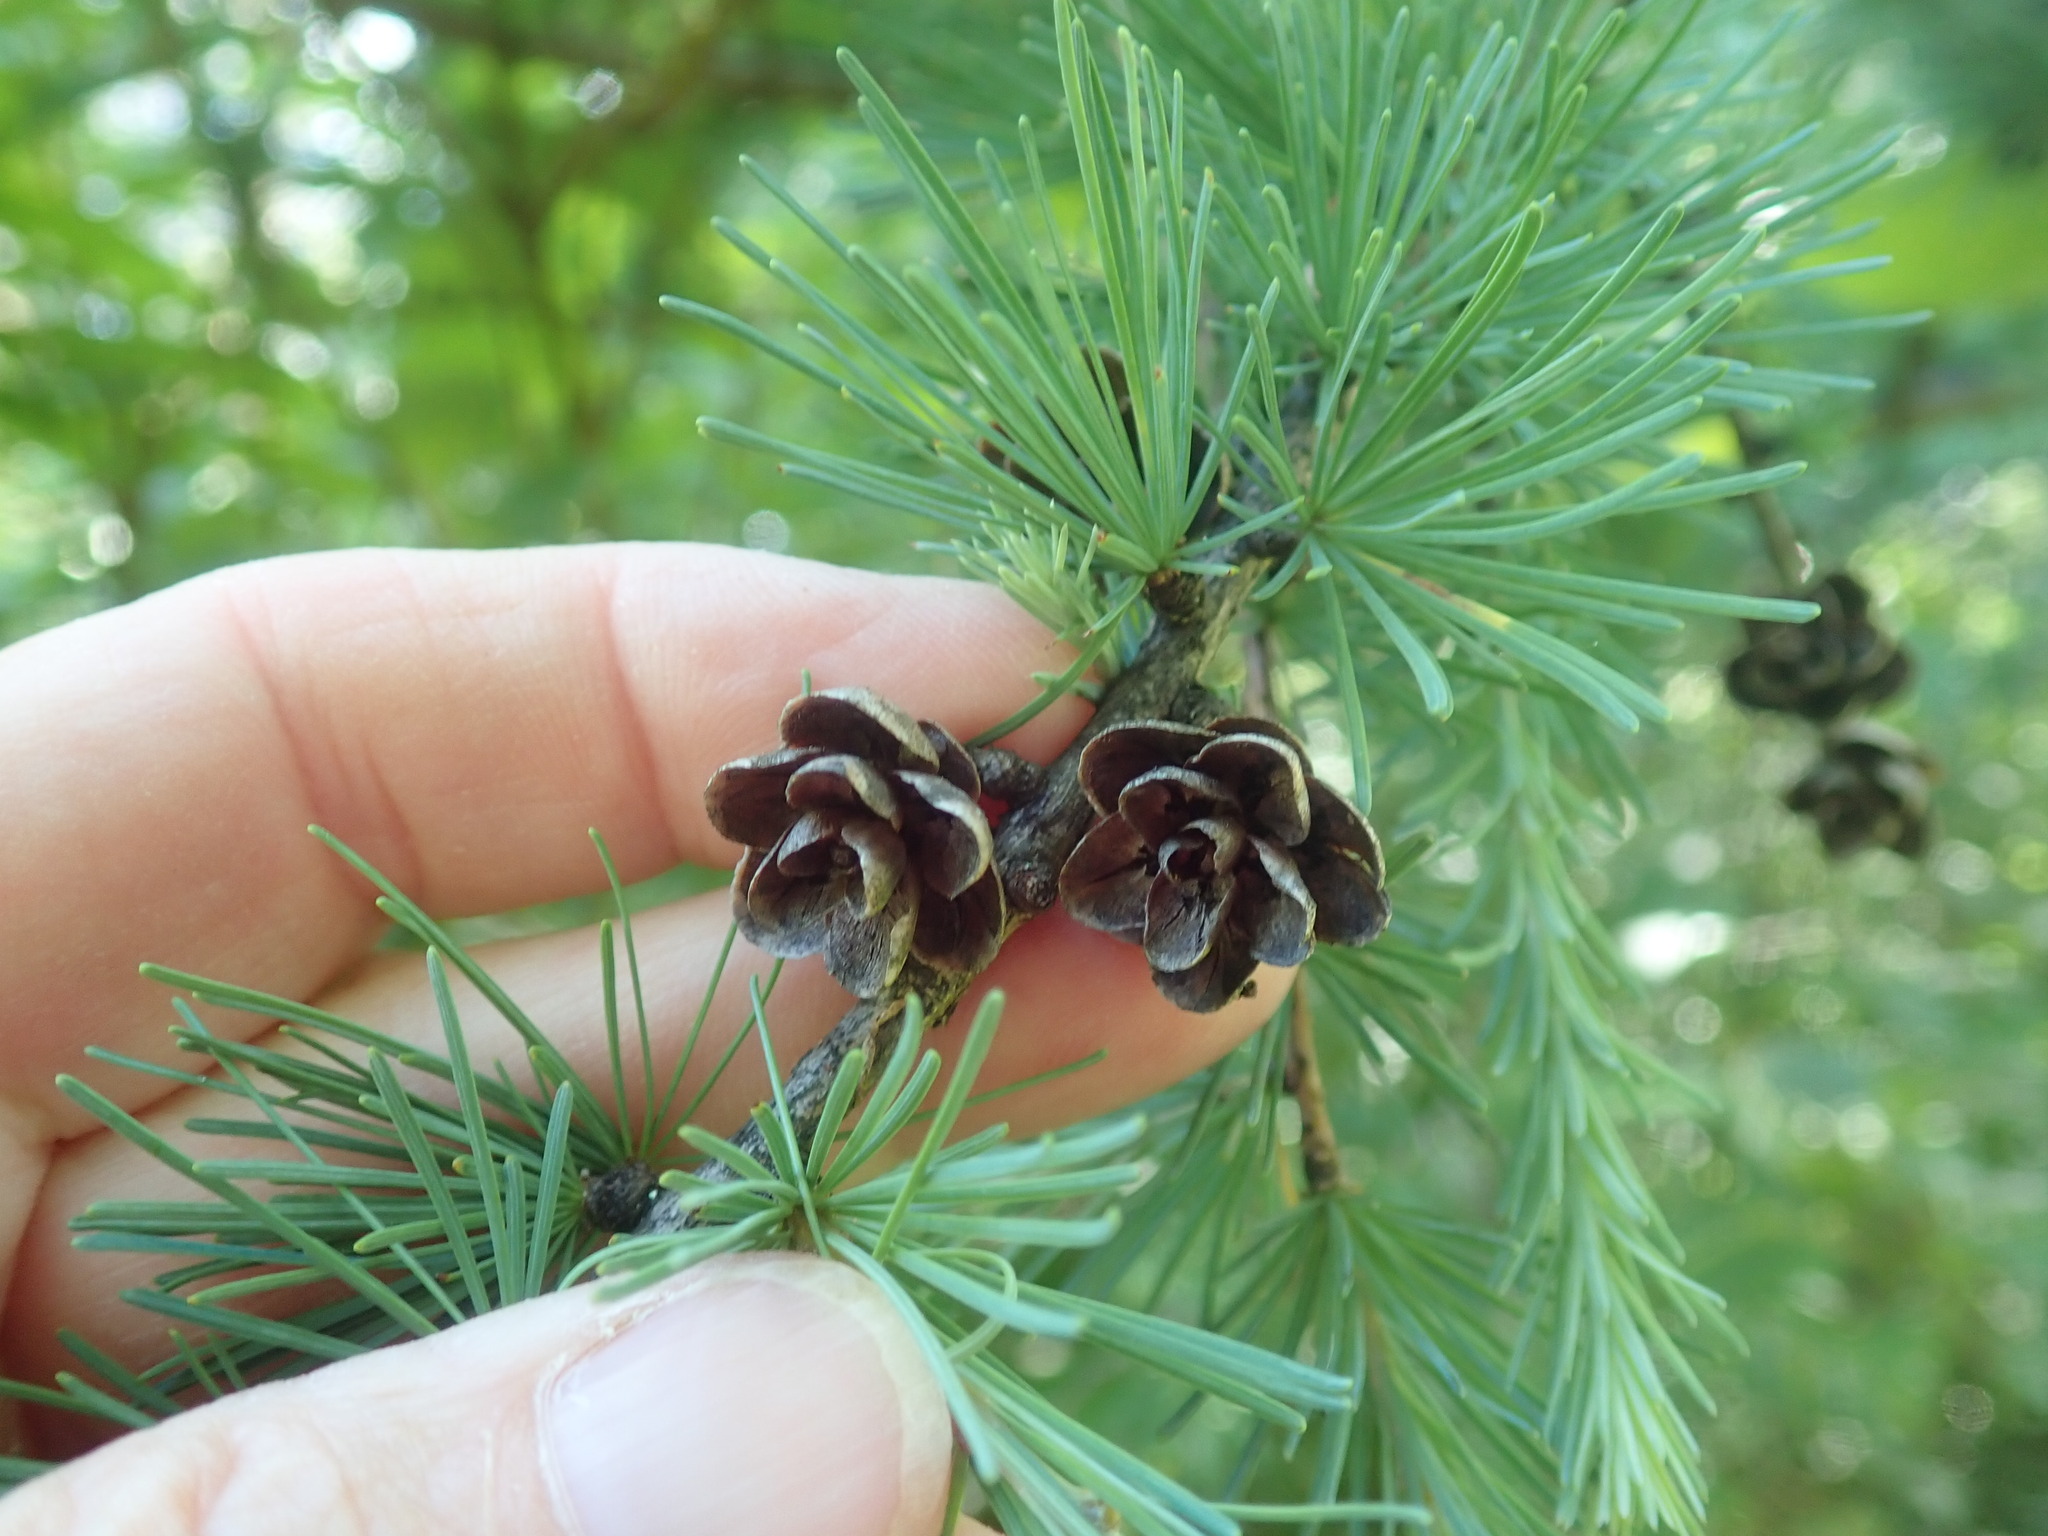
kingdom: Plantae
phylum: Tracheophyta
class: Pinopsida
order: Pinales
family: Pinaceae
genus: Larix
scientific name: Larix laricina
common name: American larch
